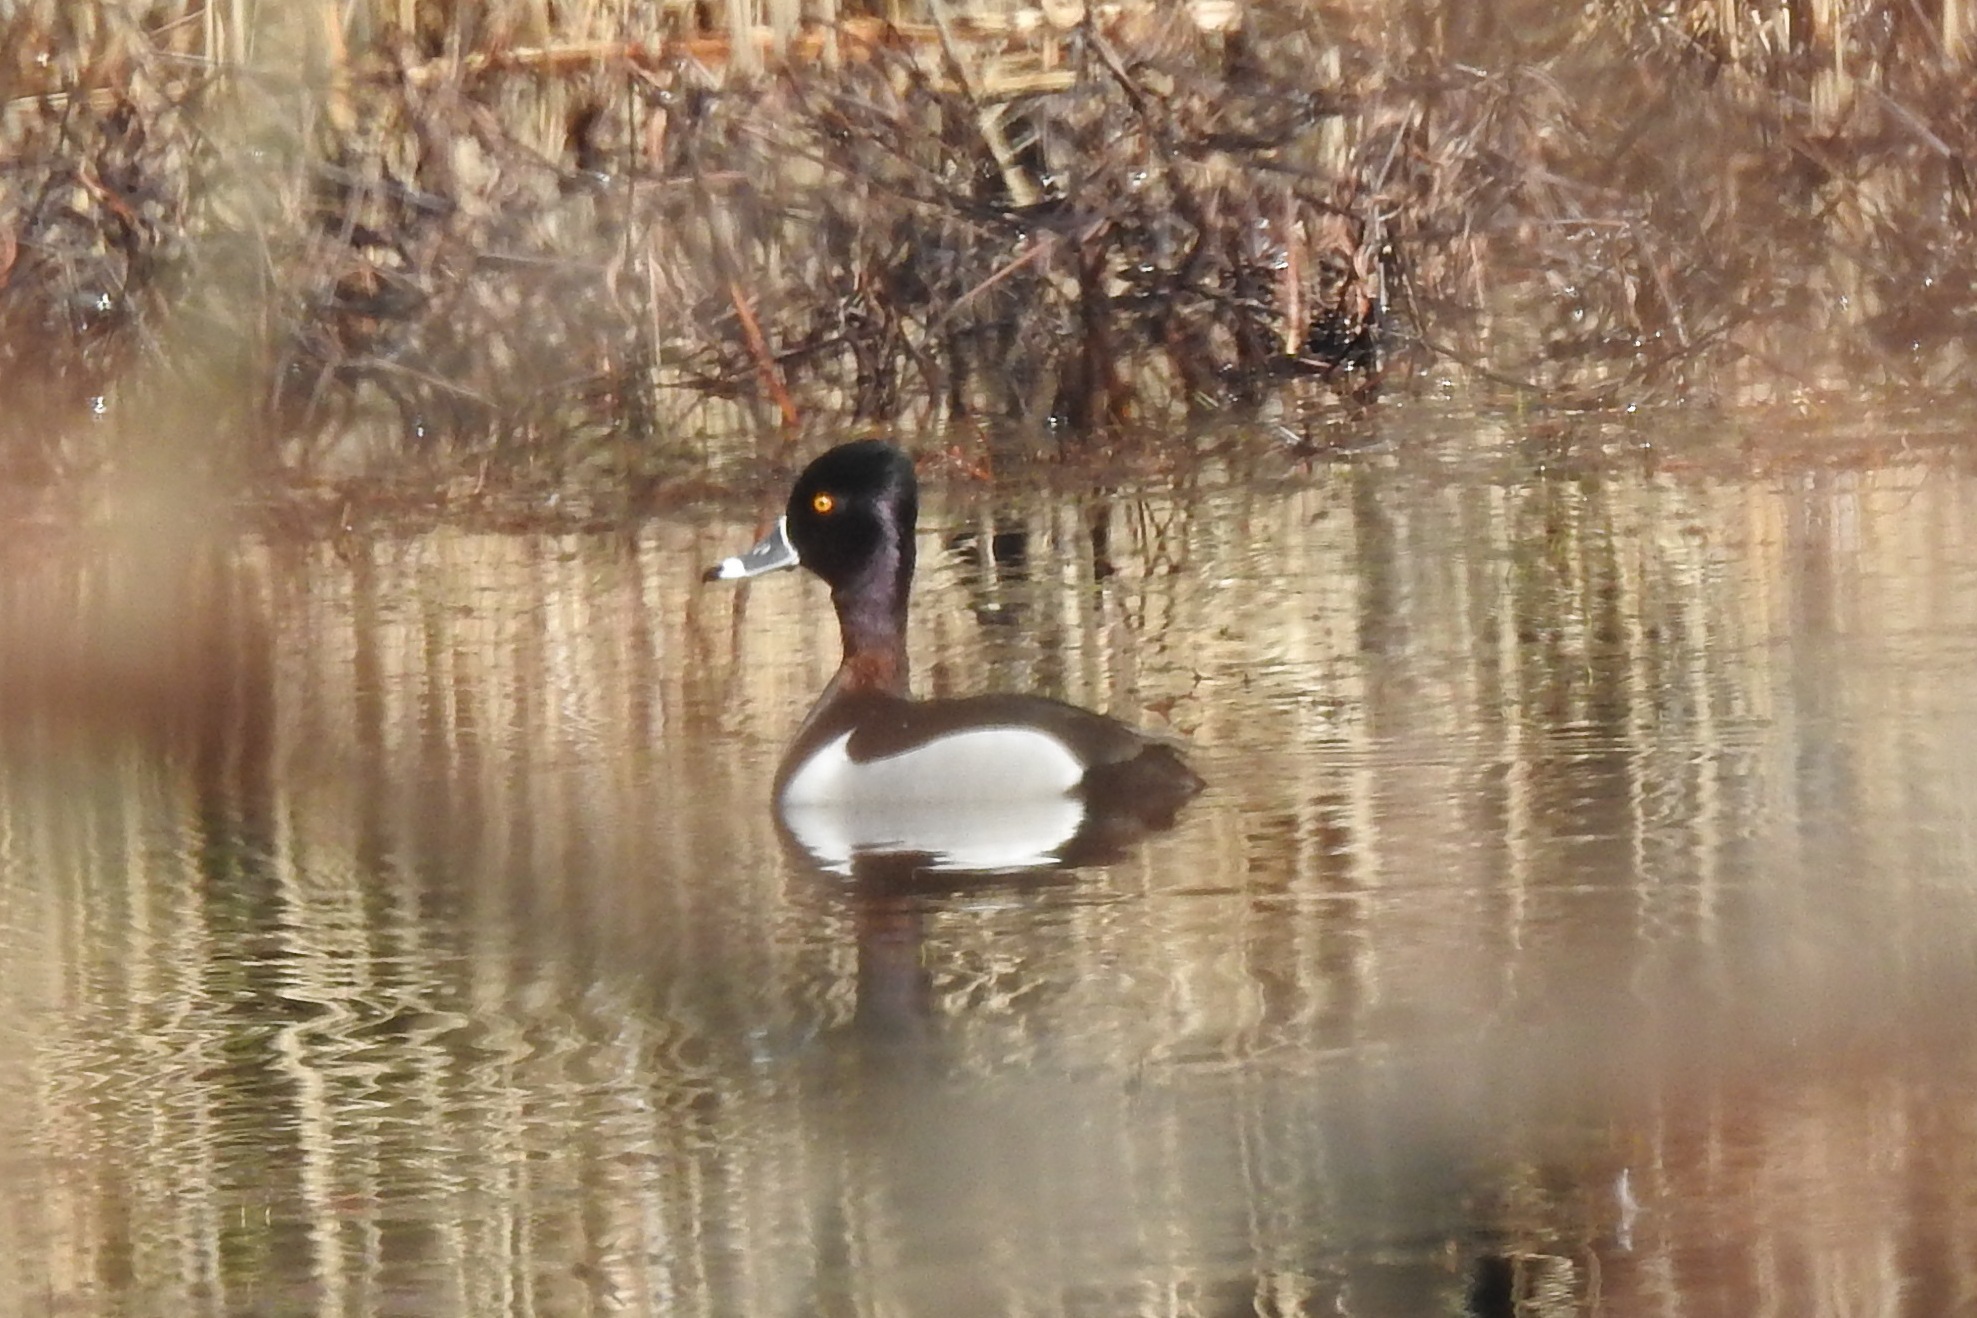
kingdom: Animalia
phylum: Chordata
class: Aves
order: Anseriformes
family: Anatidae
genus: Aythya
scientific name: Aythya collaris
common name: Ring-necked duck
